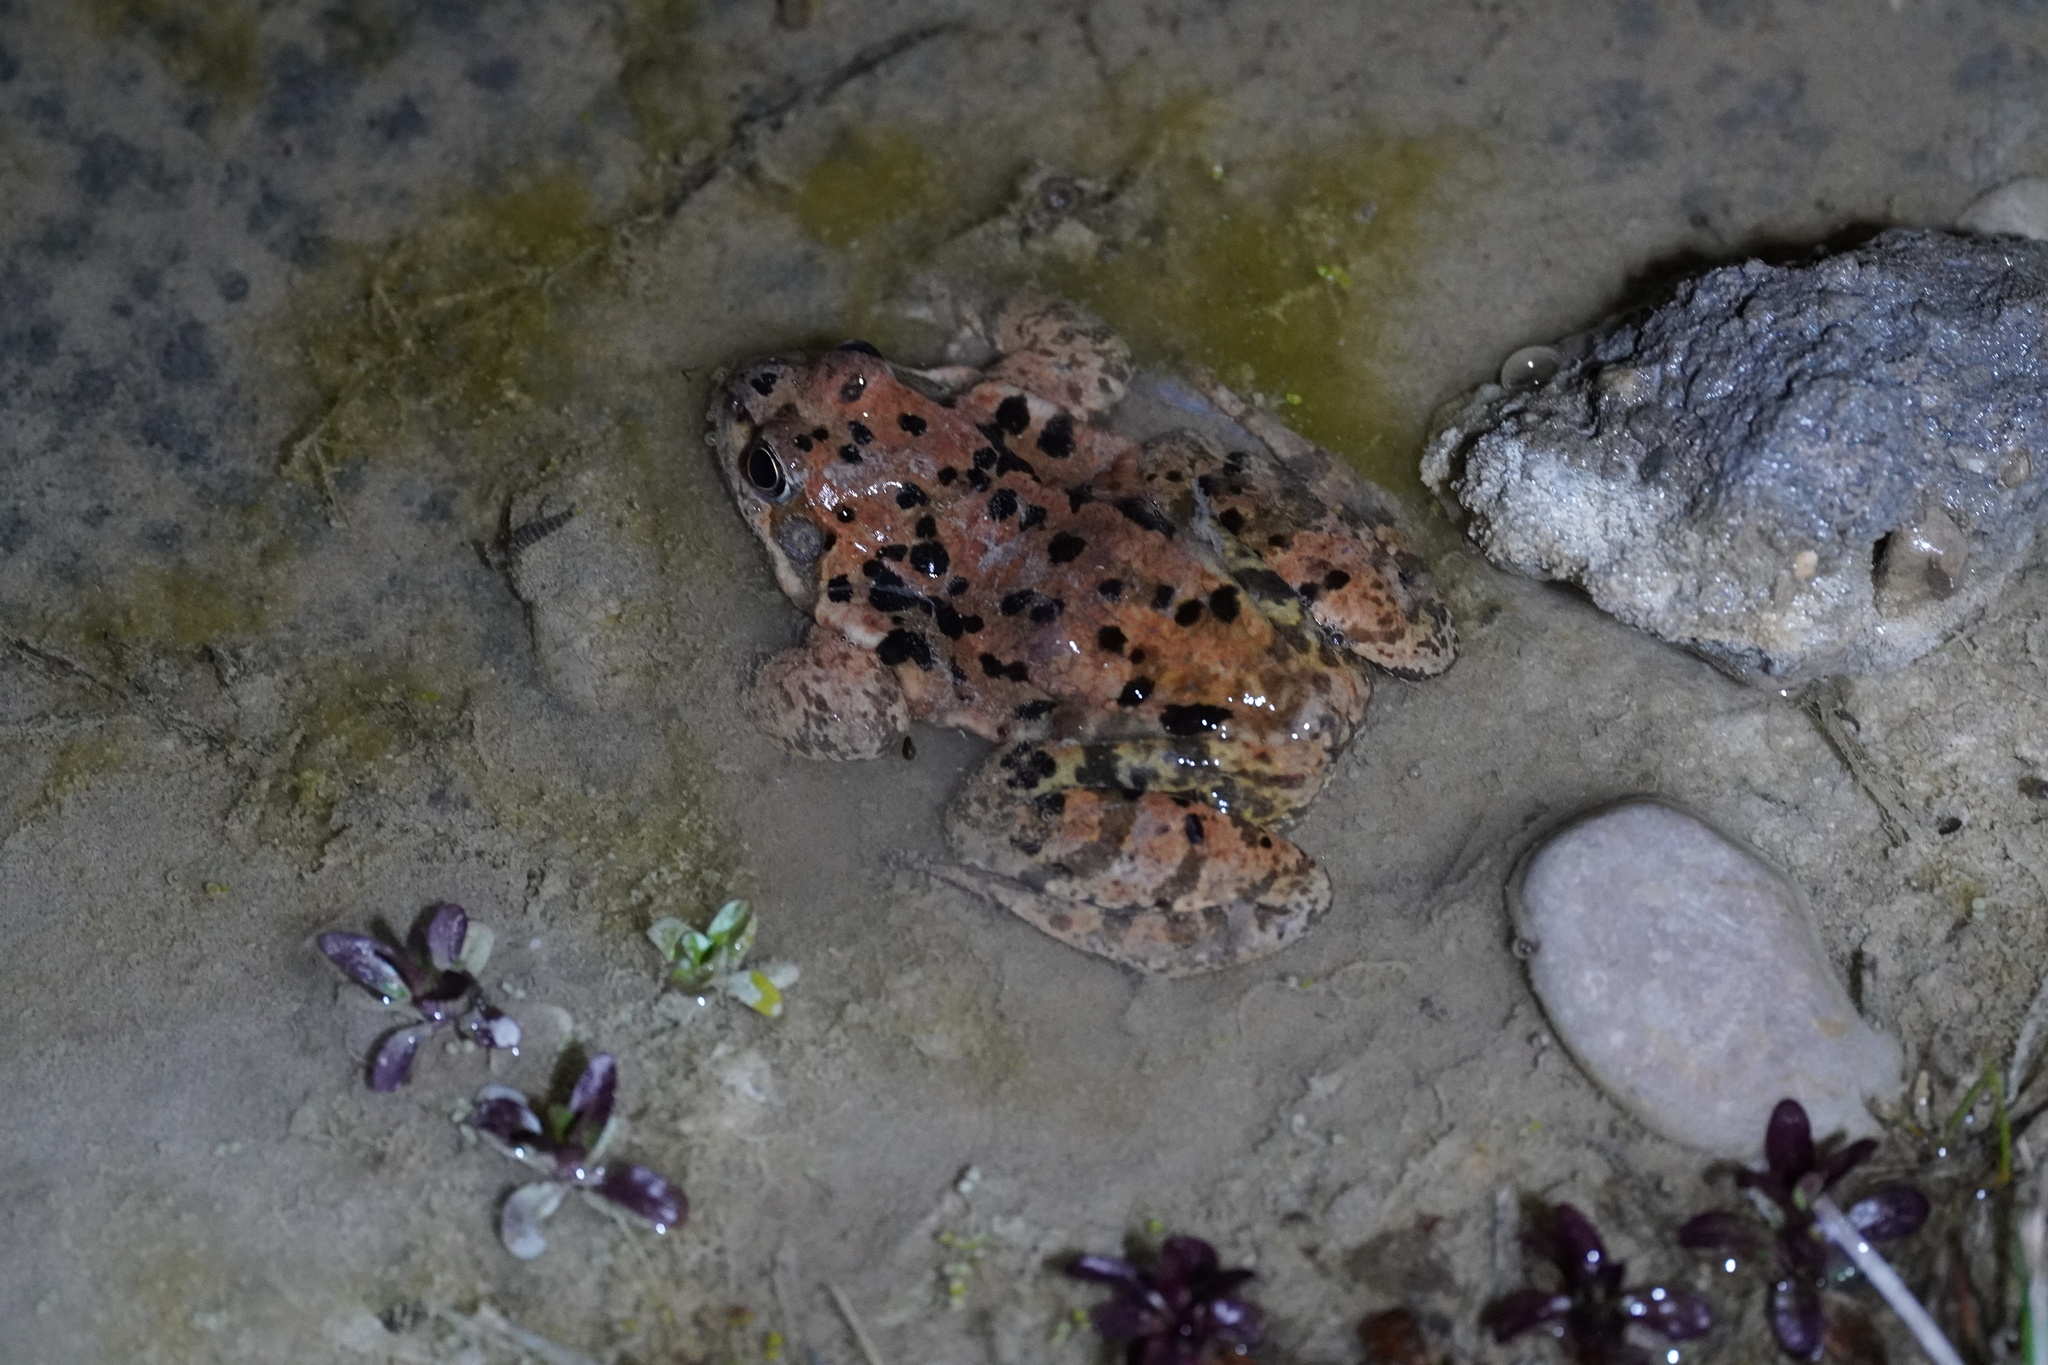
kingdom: Animalia
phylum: Chordata
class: Amphibia
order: Anura
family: Ranidae
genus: Rana
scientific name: Rana temporaria
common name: Common frog
